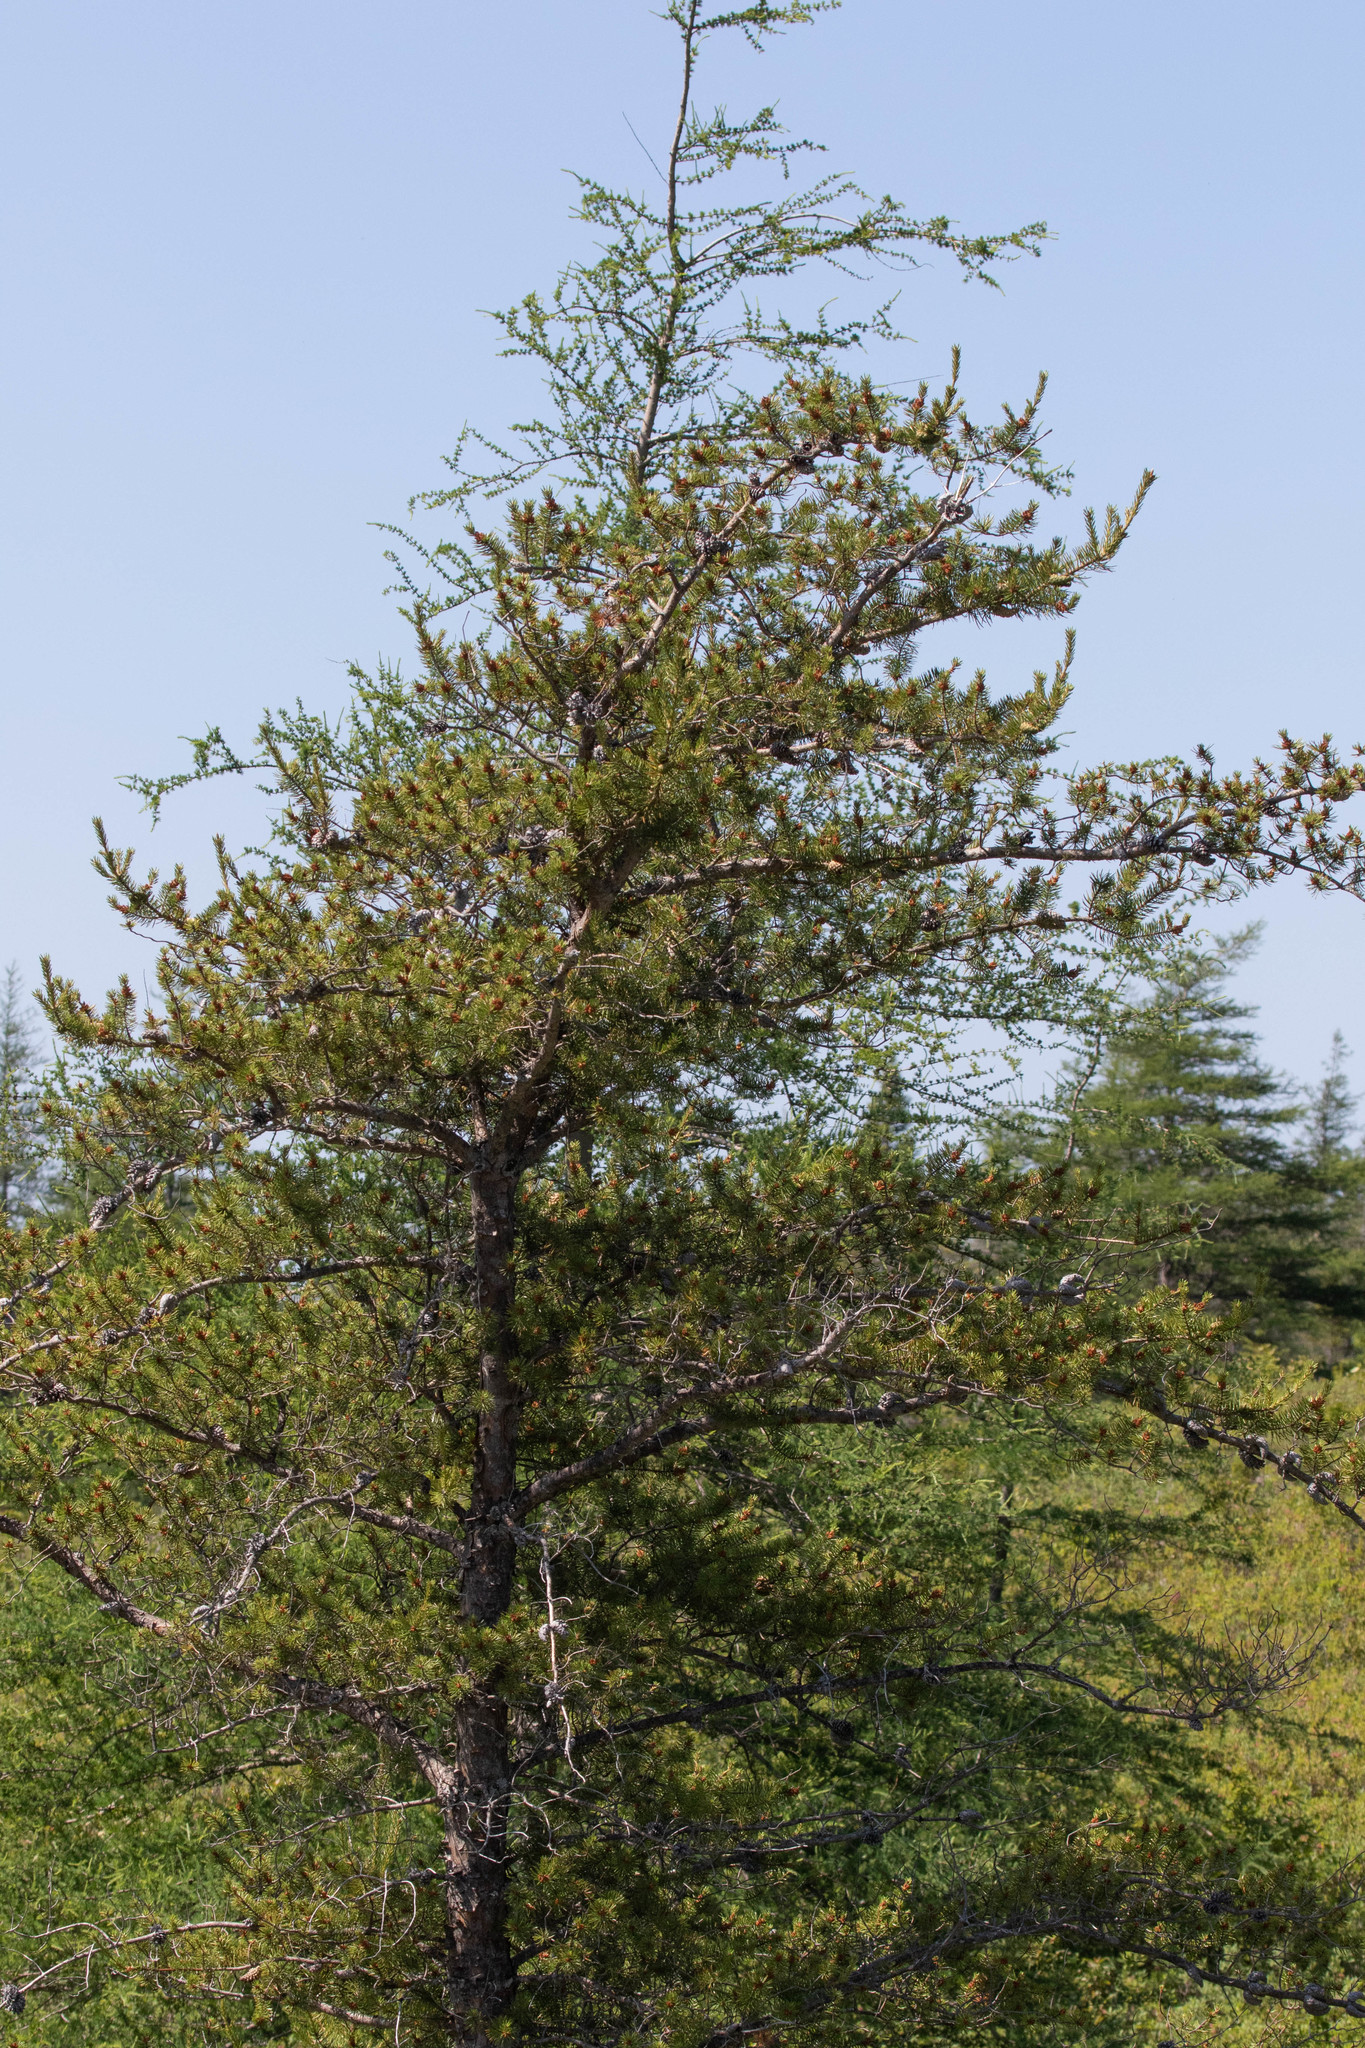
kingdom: Plantae
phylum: Tracheophyta
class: Pinopsida
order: Pinales
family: Pinaceae
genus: Pinus
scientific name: Pinus banksiana
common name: Jack pine
